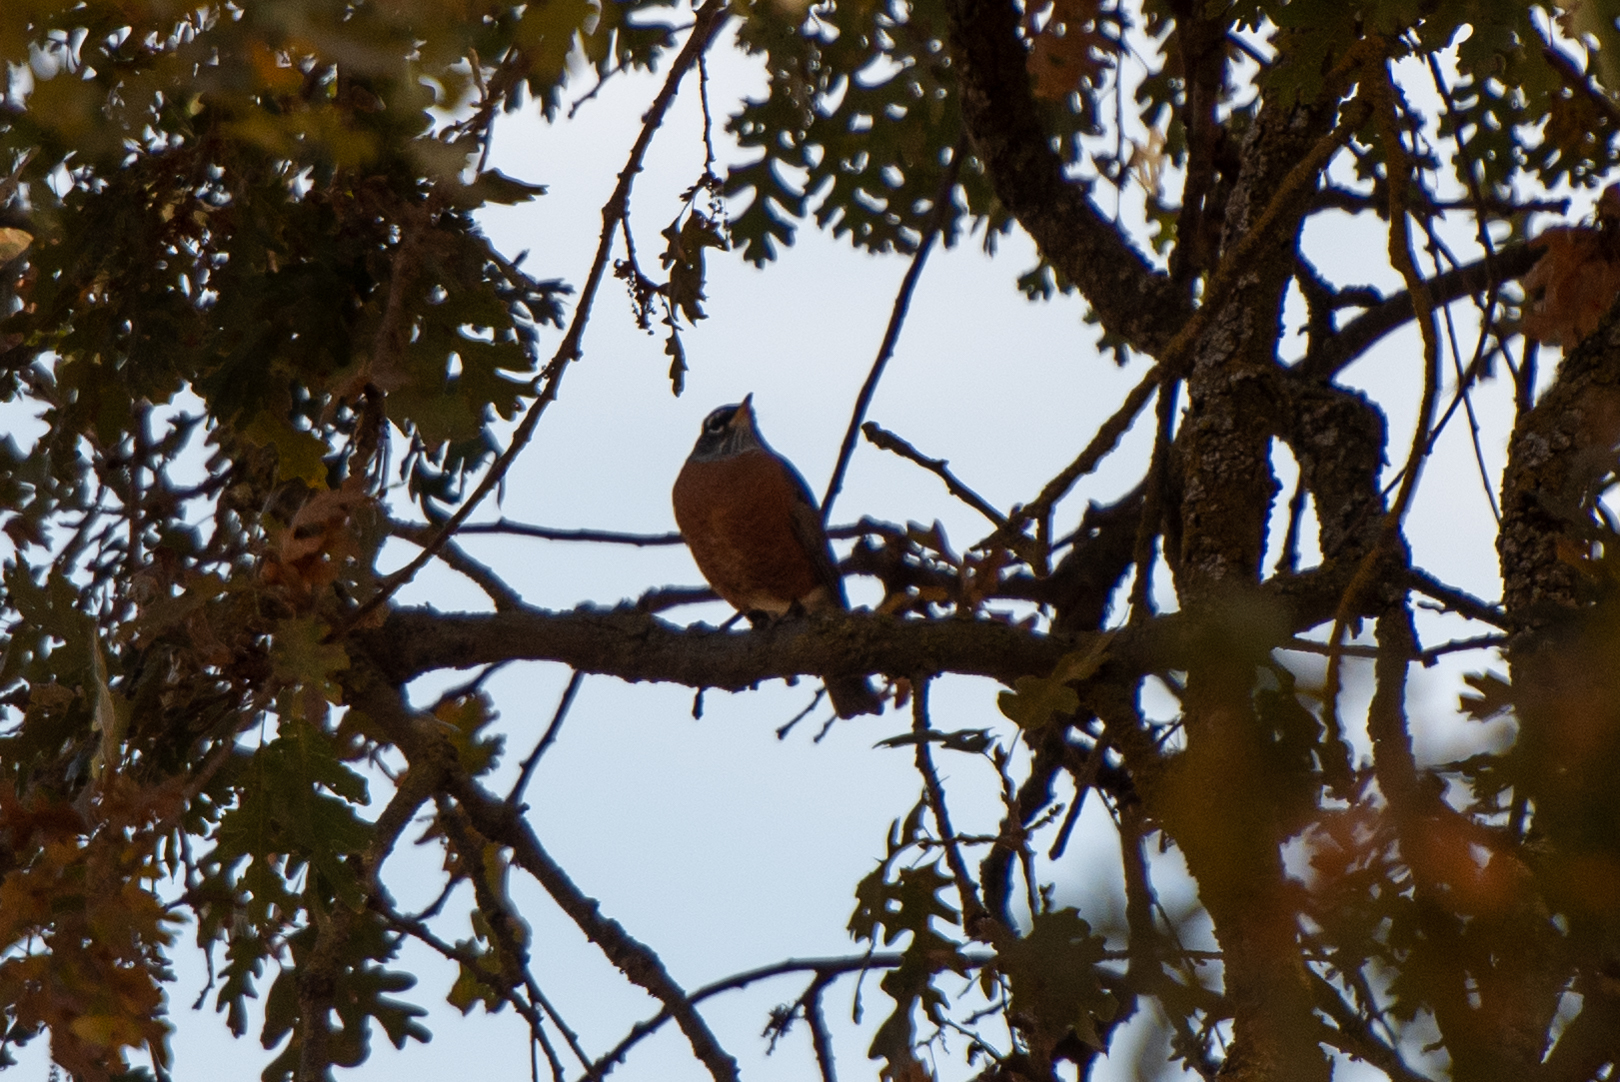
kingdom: Animalia
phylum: Chordata
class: Aves
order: Passeriformes
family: Turdidae
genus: Turdus
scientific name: Turdus migratorius
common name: American robin
